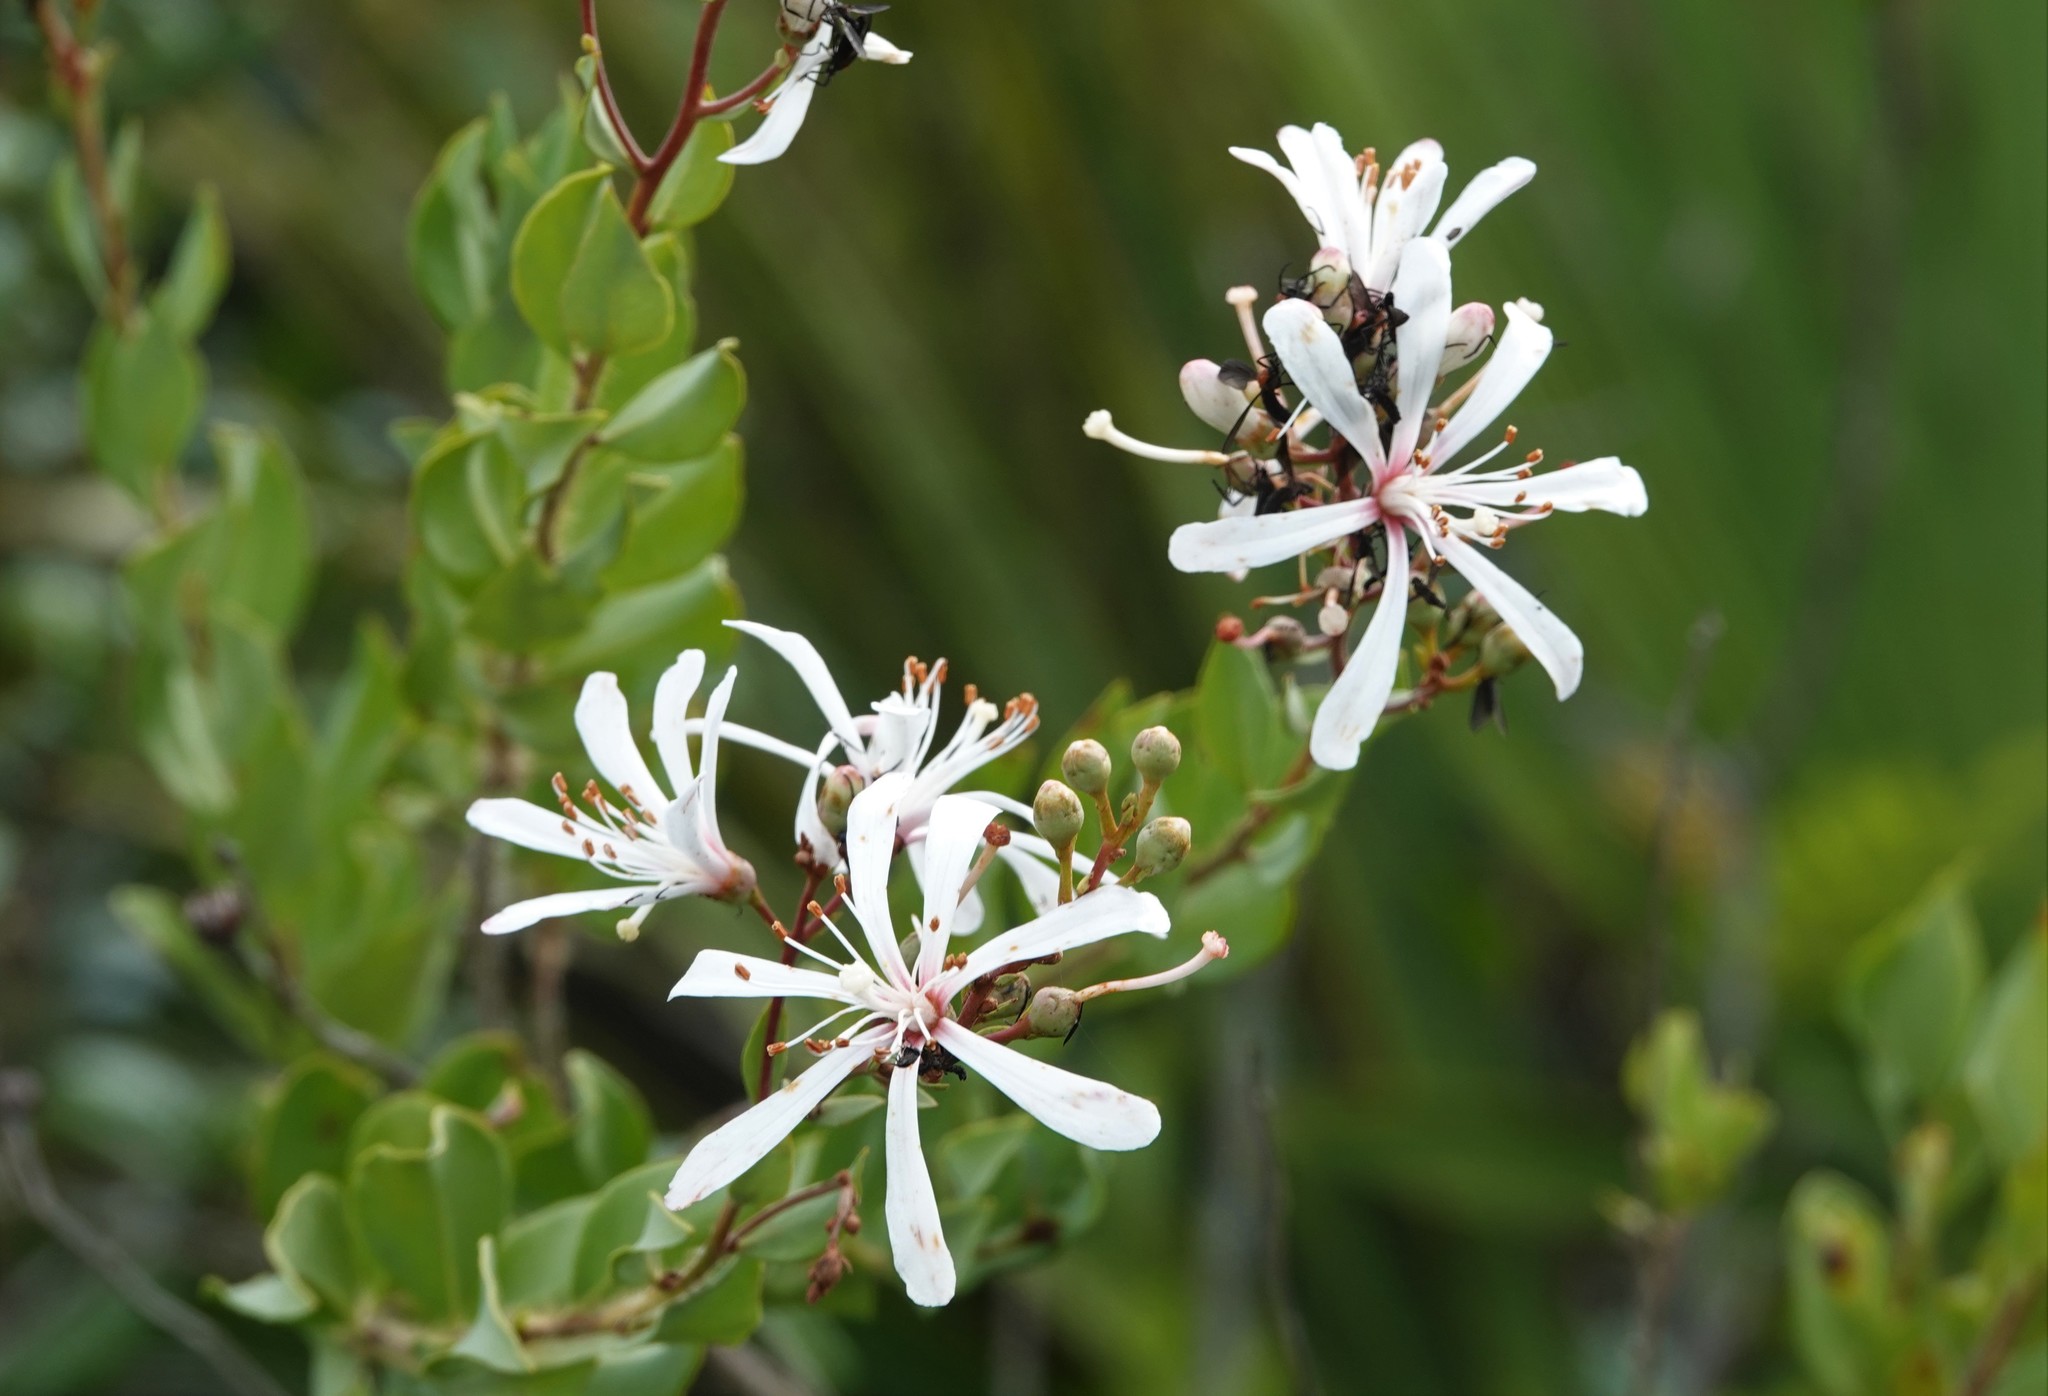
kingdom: Plantae
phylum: Tracheophyta
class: Magnoliopsida
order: Ericales
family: Ericaceae
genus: Bejaria
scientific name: Bejaria racemosa
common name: Tarflower
